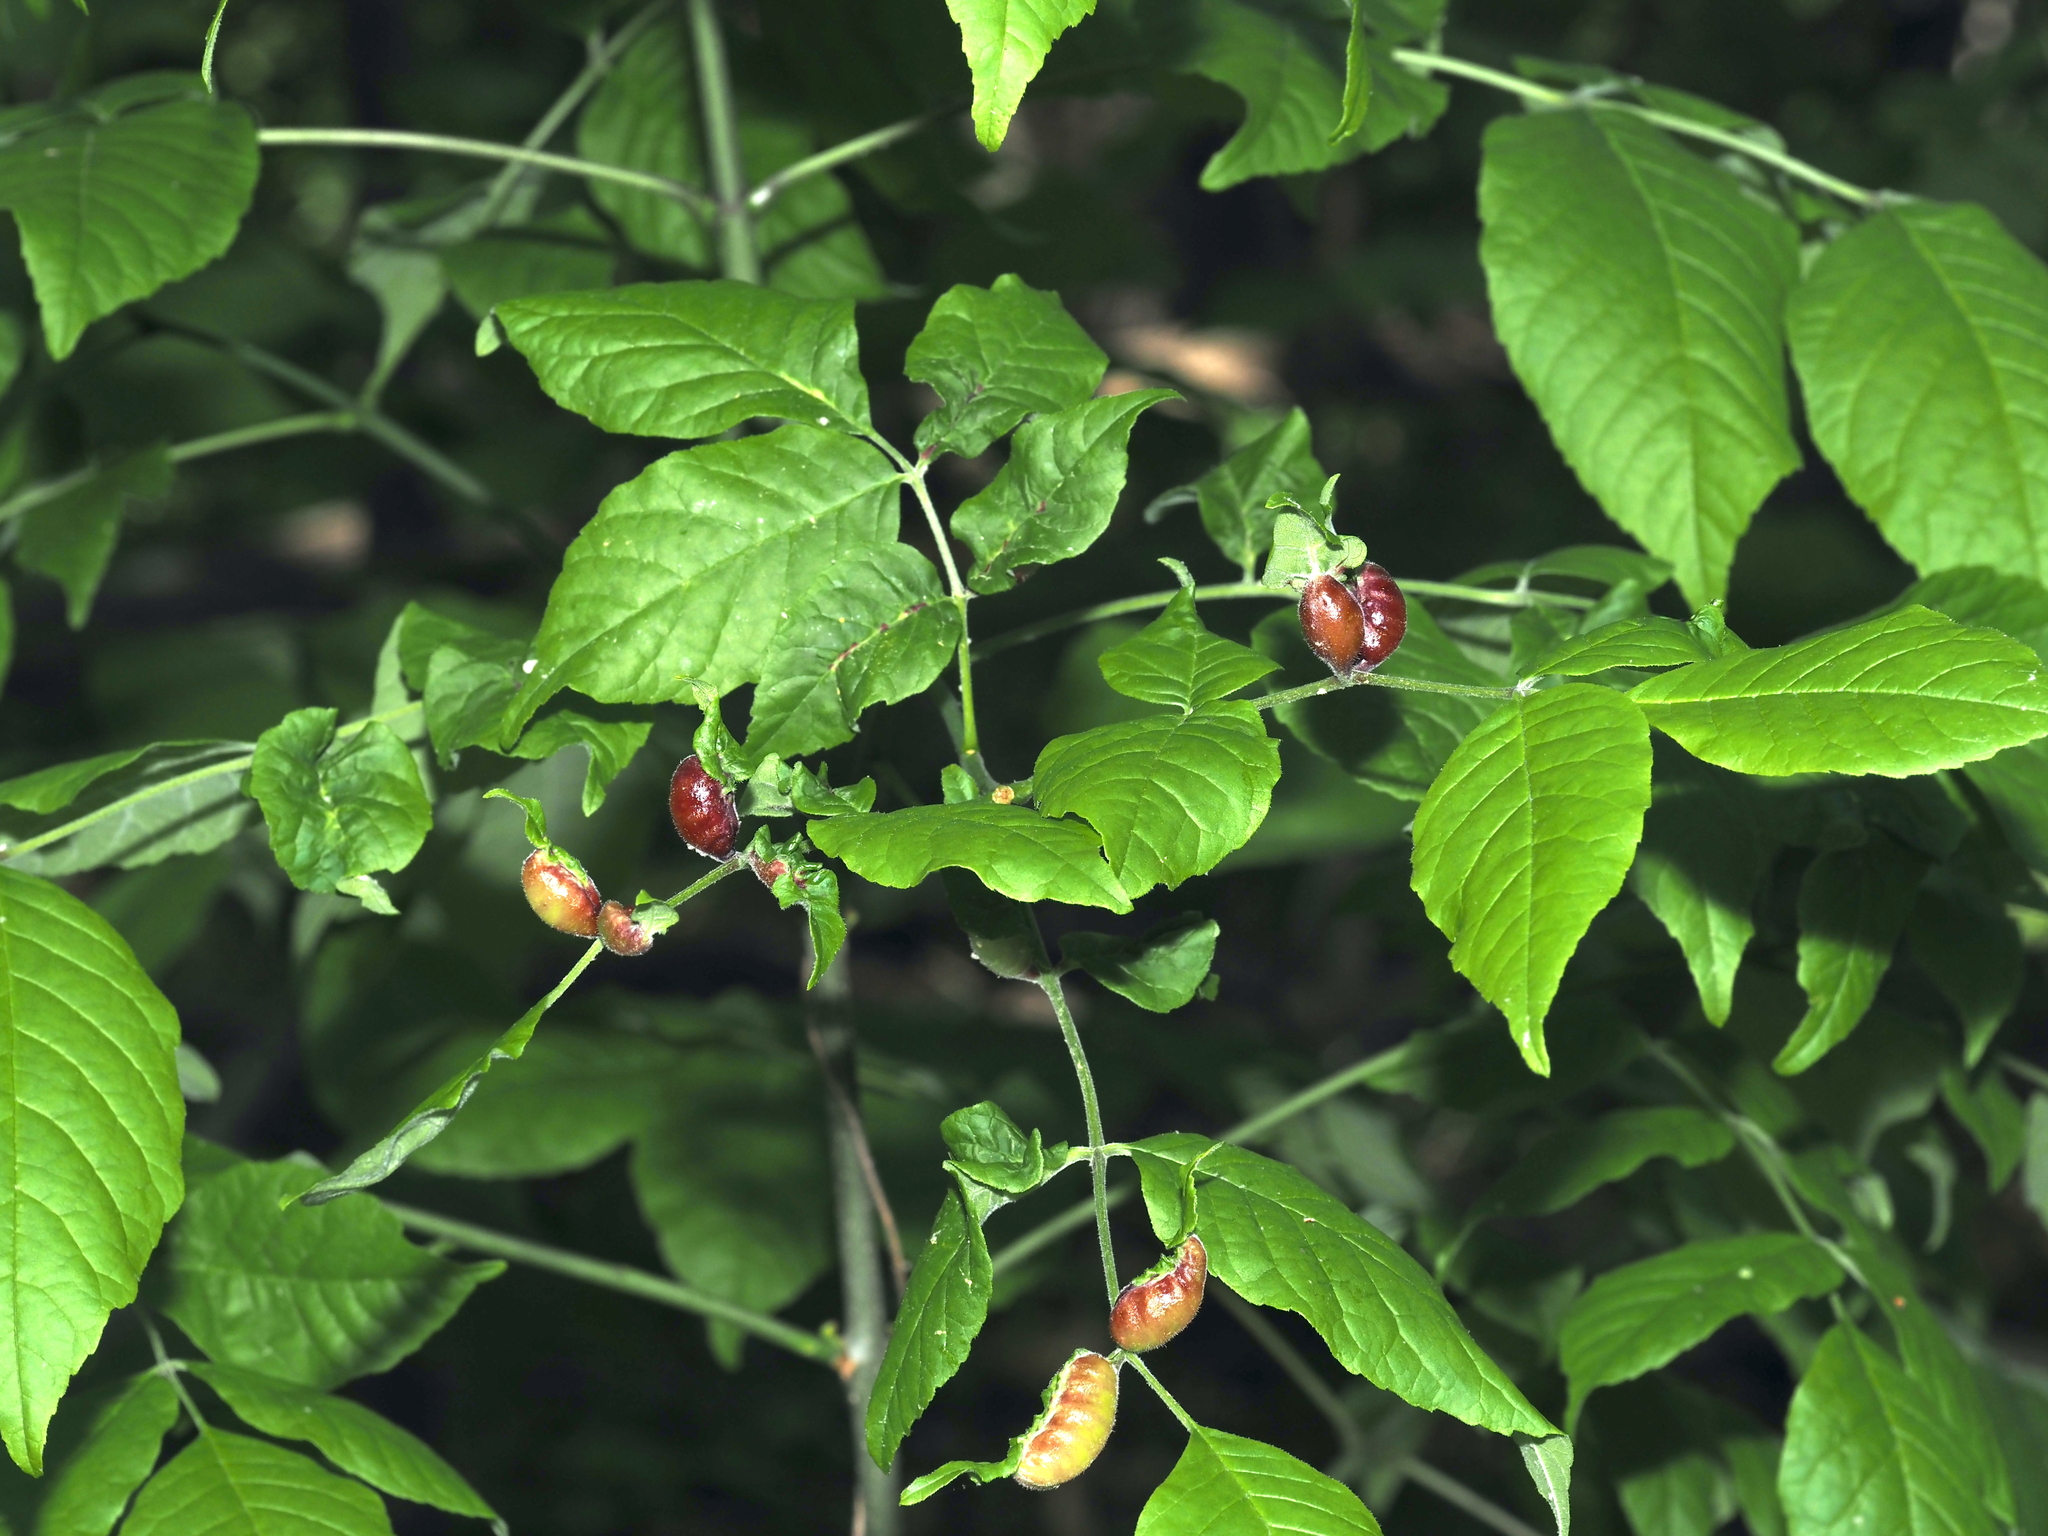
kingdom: Animalia
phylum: Arthropoda
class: Insecta
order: Diptera
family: Cecidomyiidae
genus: Dasineura
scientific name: Dasineura tumidosae
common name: Ash petiole gall midge
